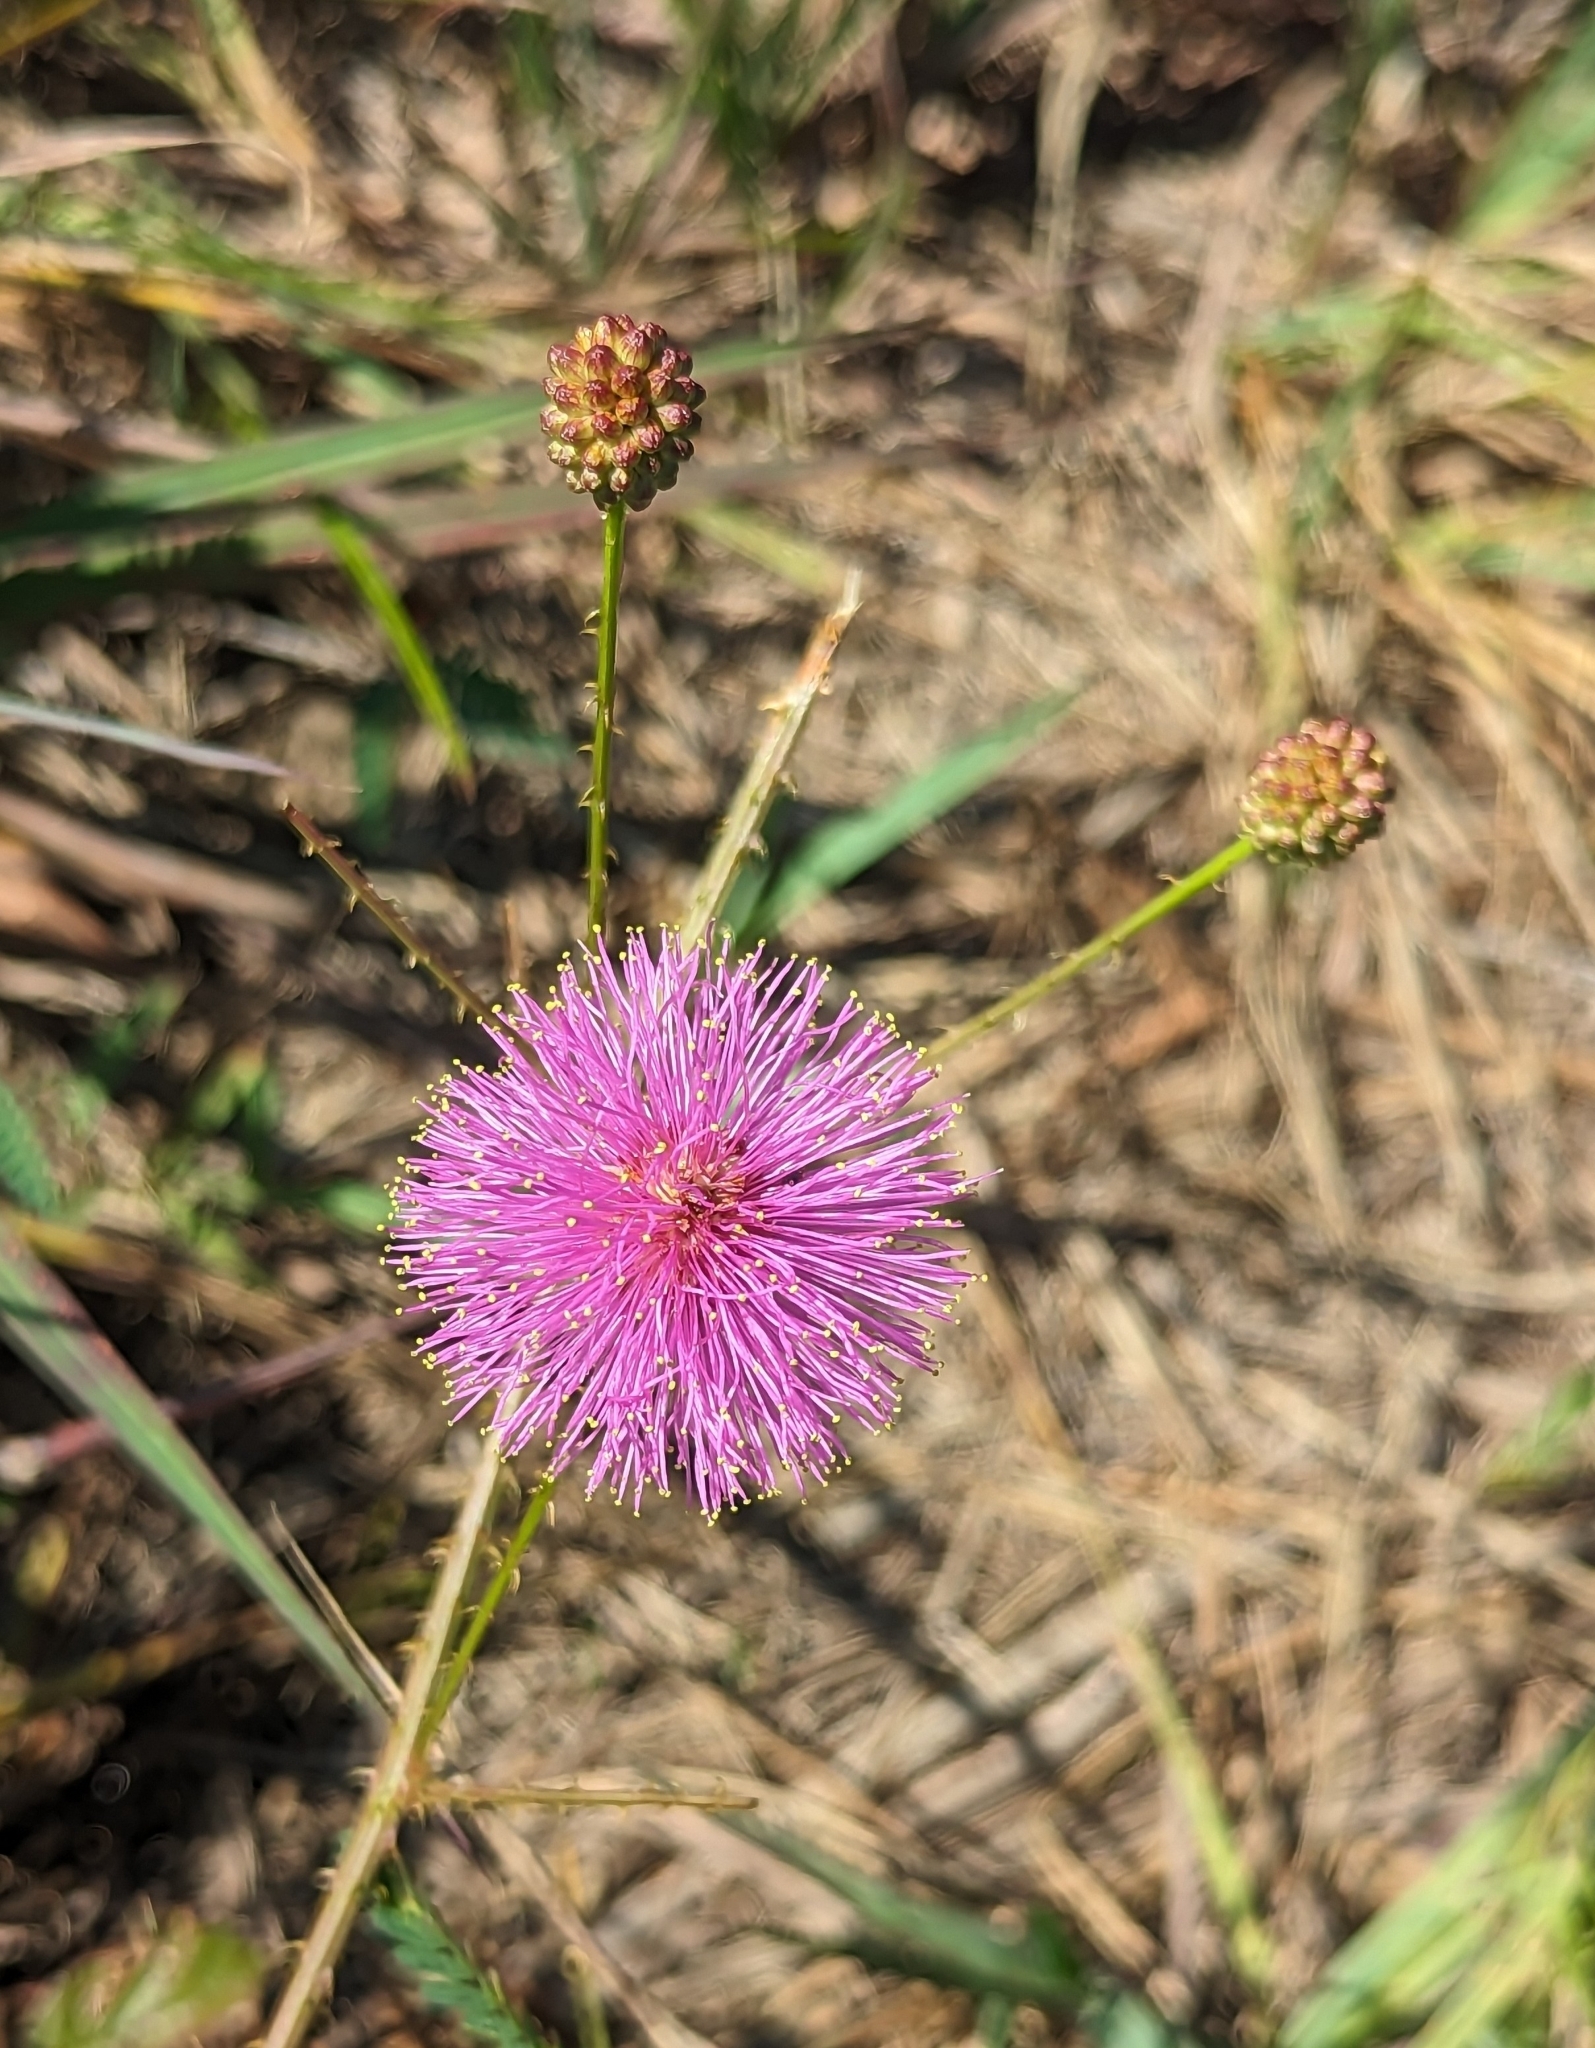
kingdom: Plantae
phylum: Tracheophyta
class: Magnoliopsida
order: Fabales
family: Fabaceae
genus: Mimosa
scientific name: Mimosa quadrivalvis
